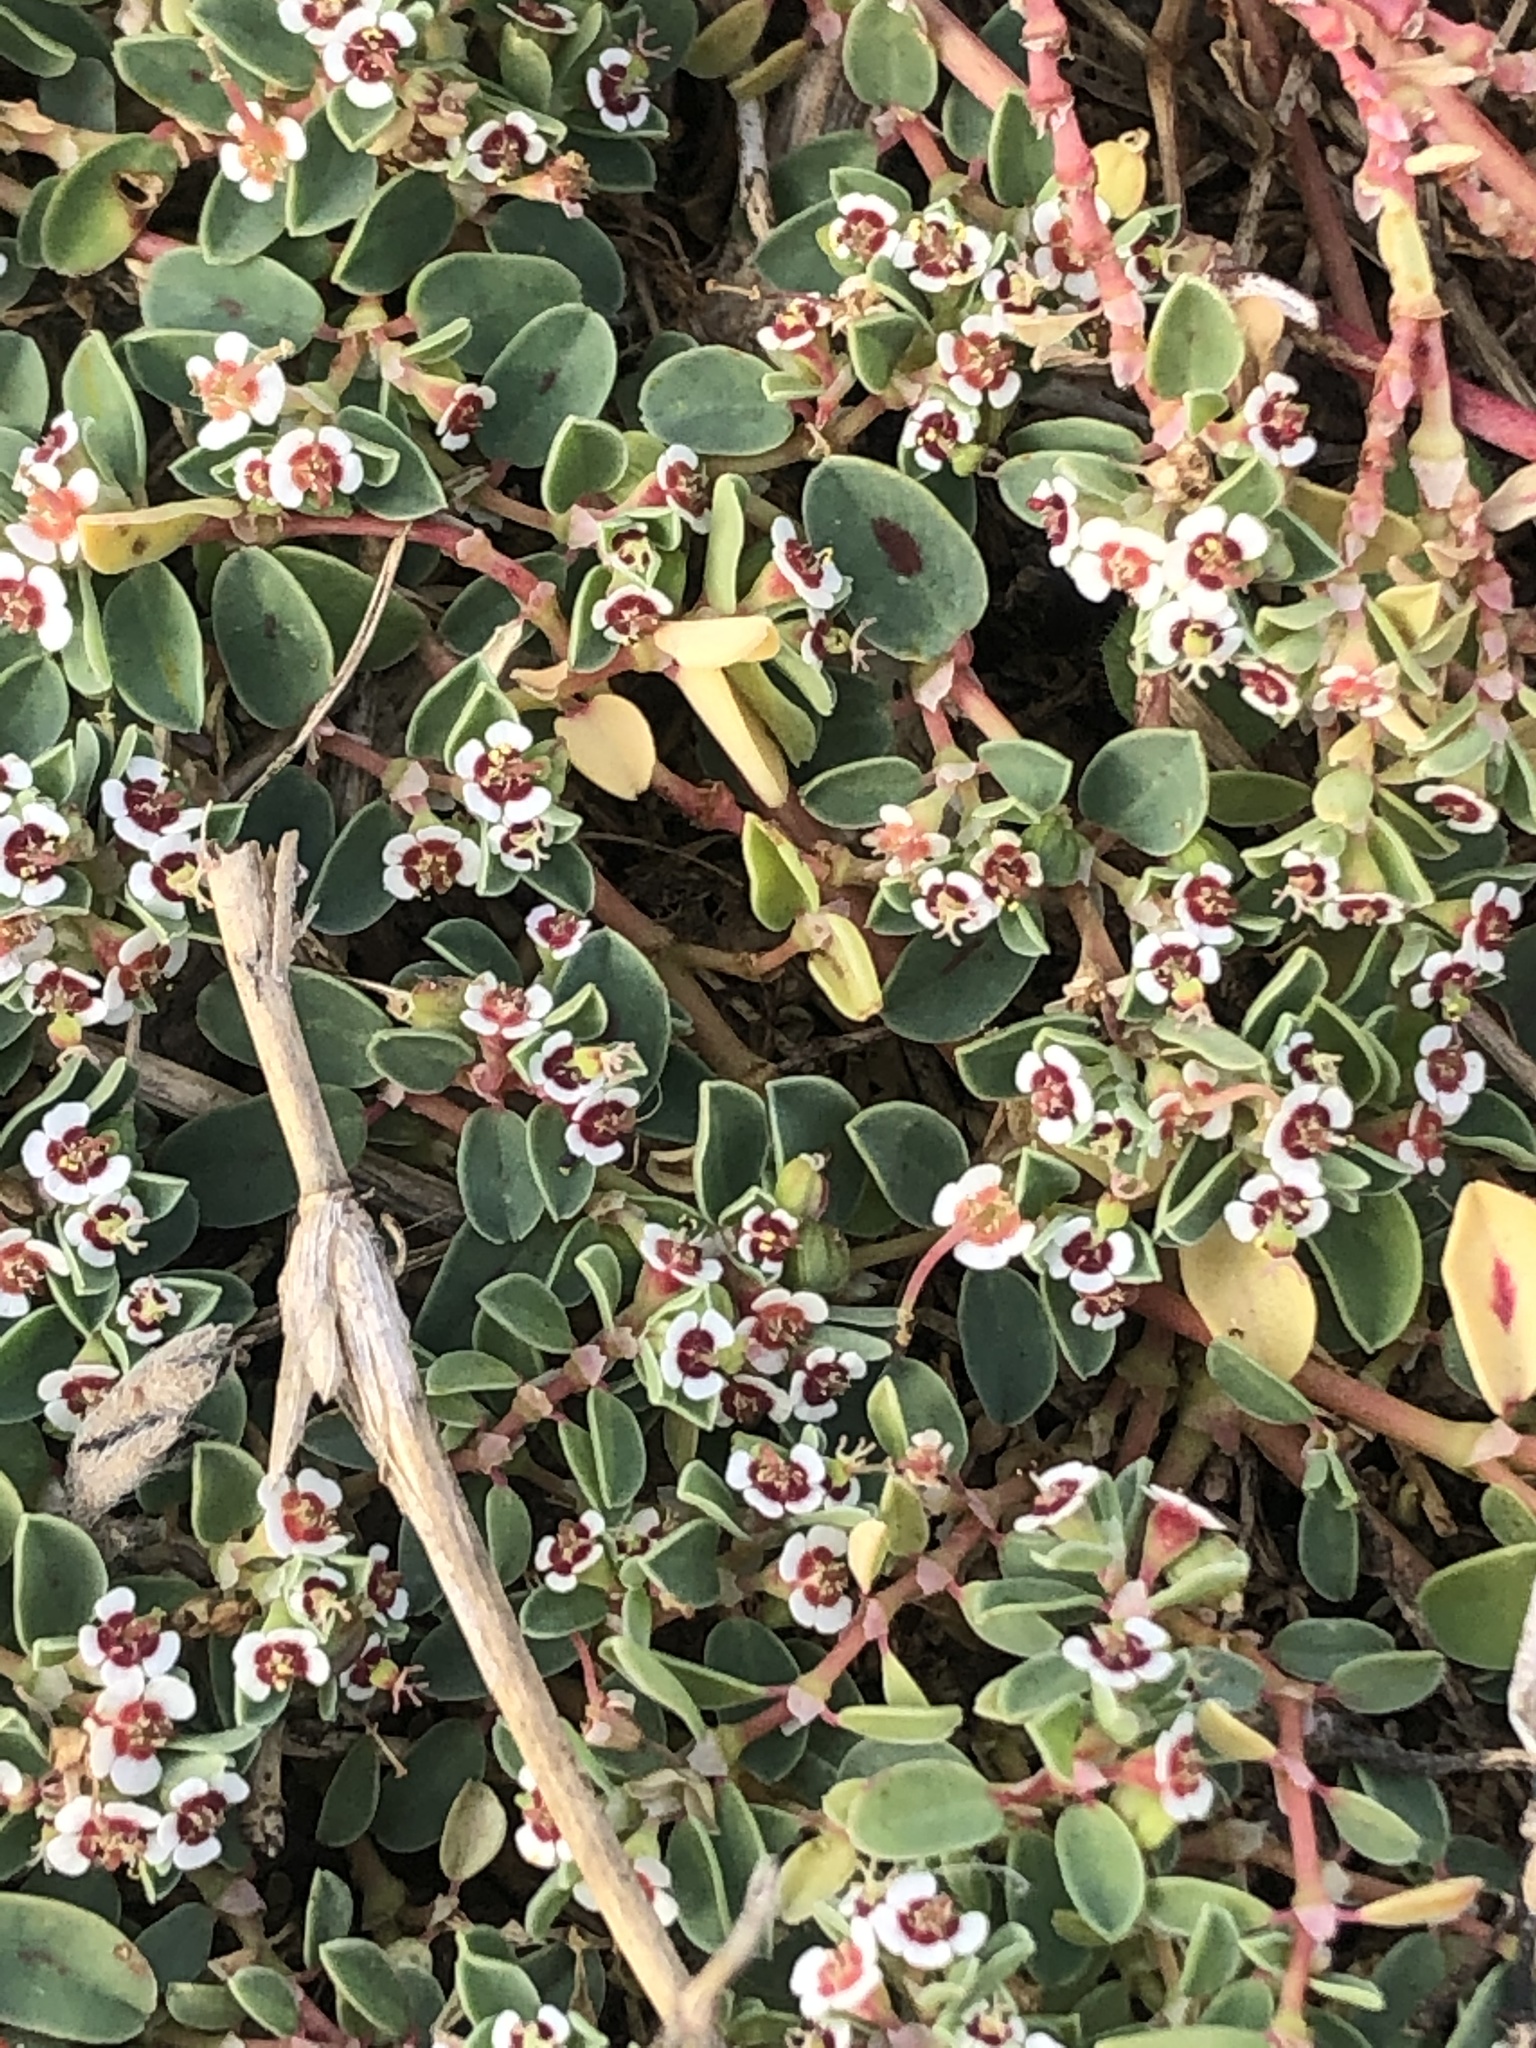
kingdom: Plantae
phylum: Tracheophyta
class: Magnoliopsida
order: Malpighiales
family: Euphorbiaceae
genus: Euphorbia
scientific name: Euphorbia albomarginata
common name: Whitemargin sandmat
